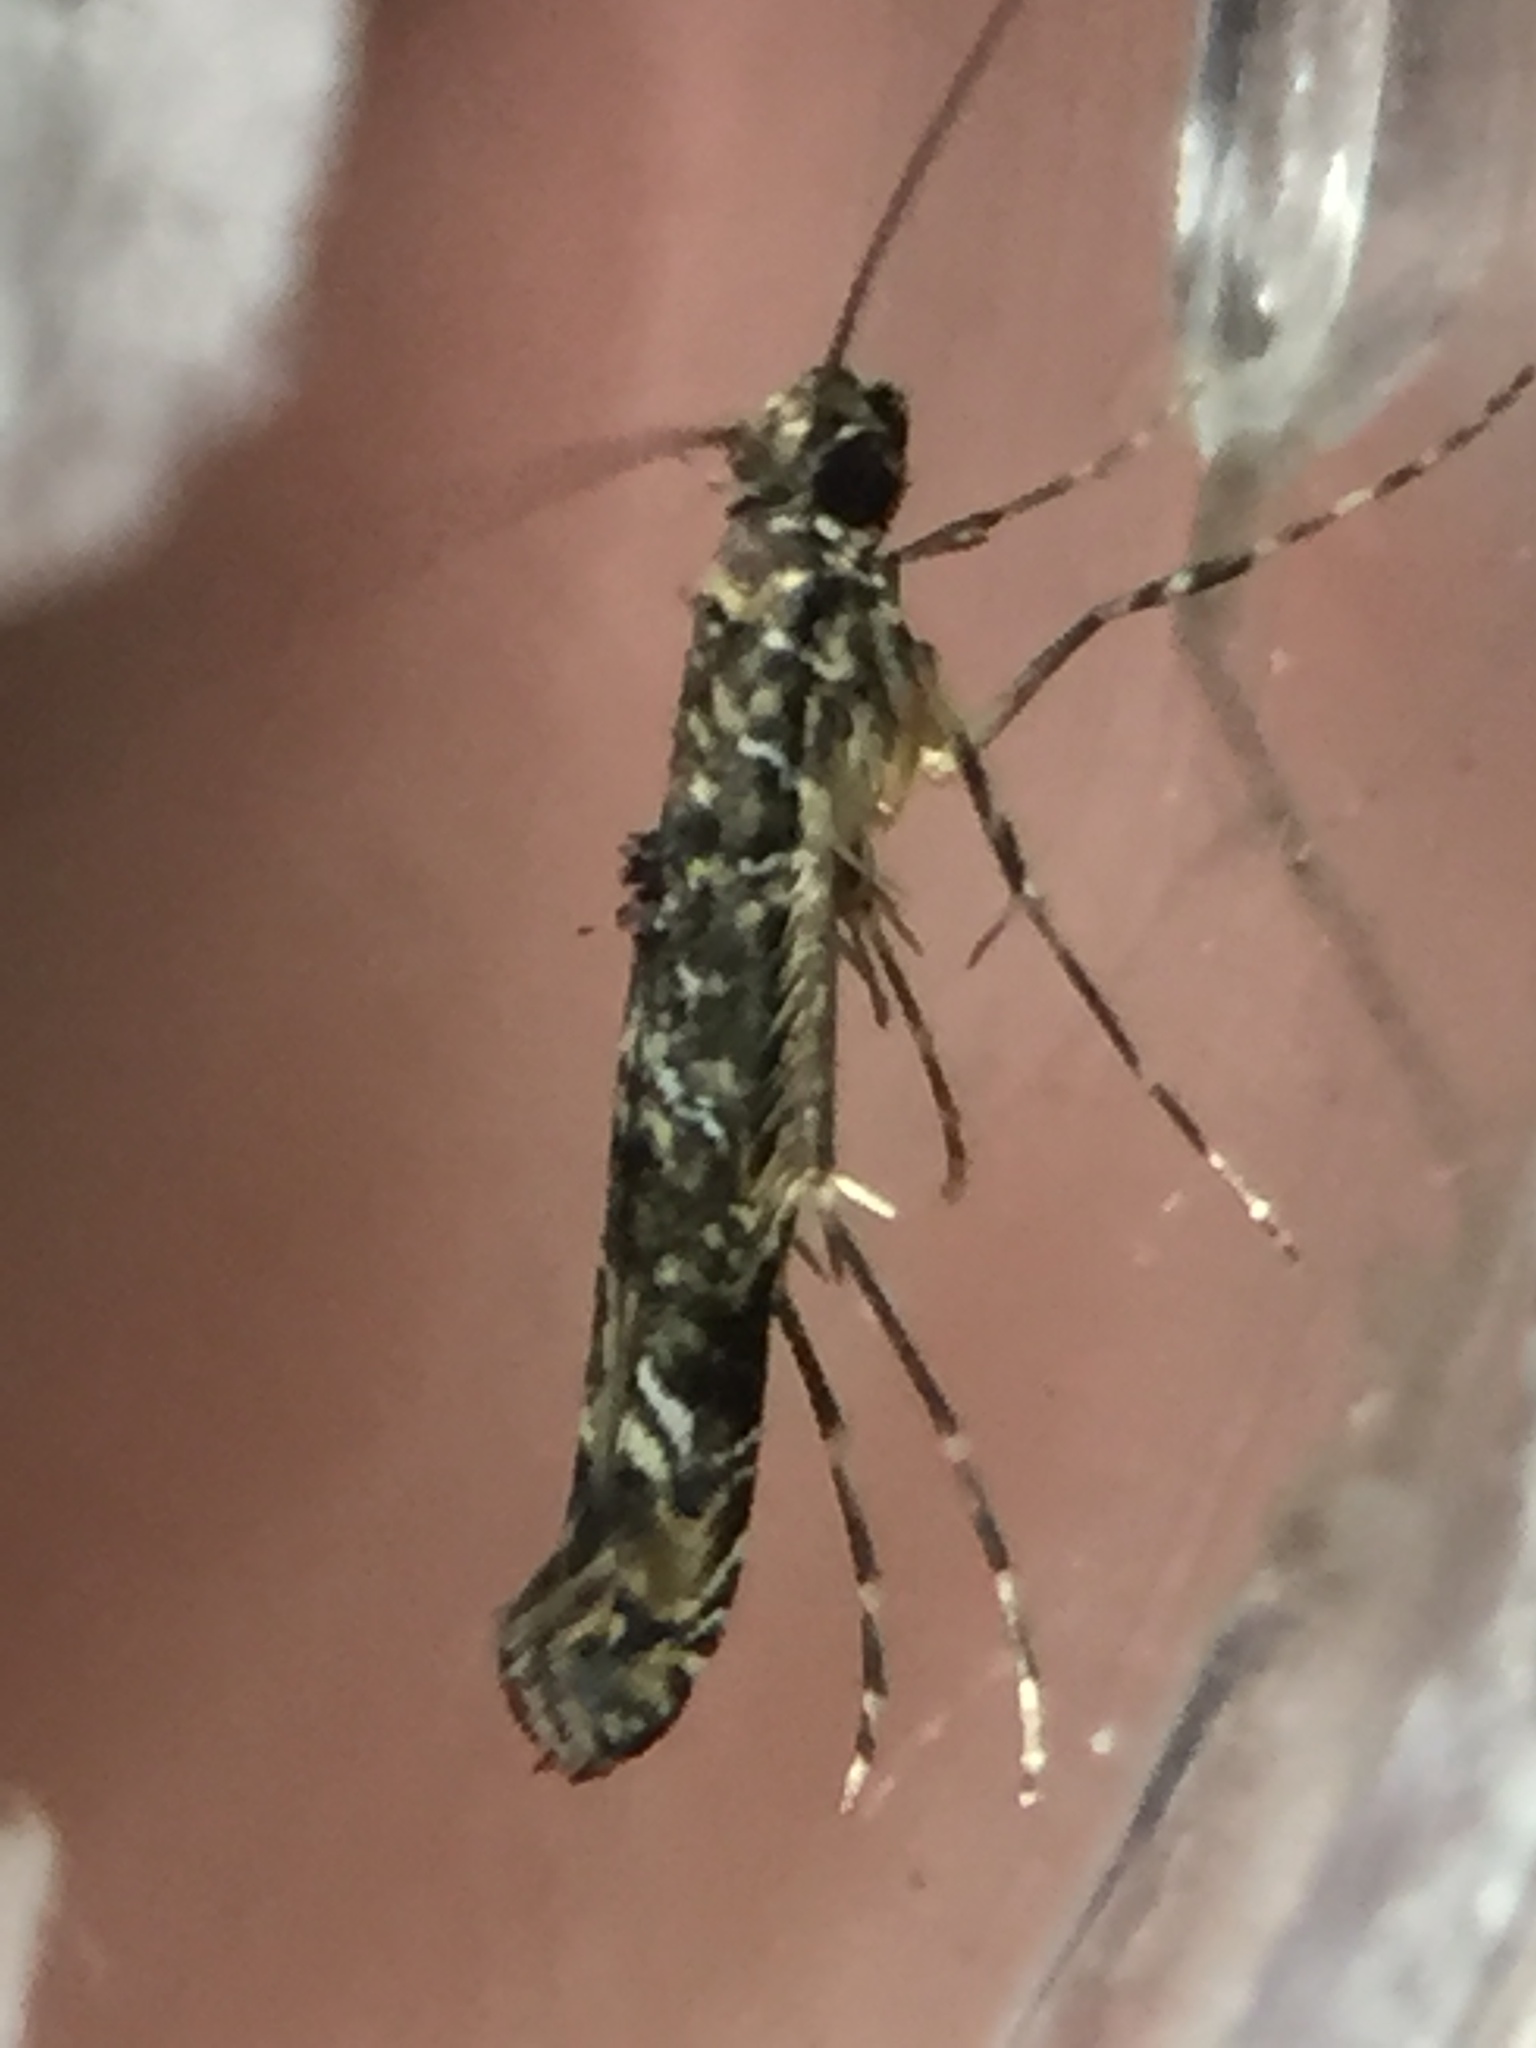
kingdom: Animalia
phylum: Arthropoda
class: Insecta
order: Lepidoptera
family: Gracillariidae
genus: Conopomorpha
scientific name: Conopomorpha cyanospila
